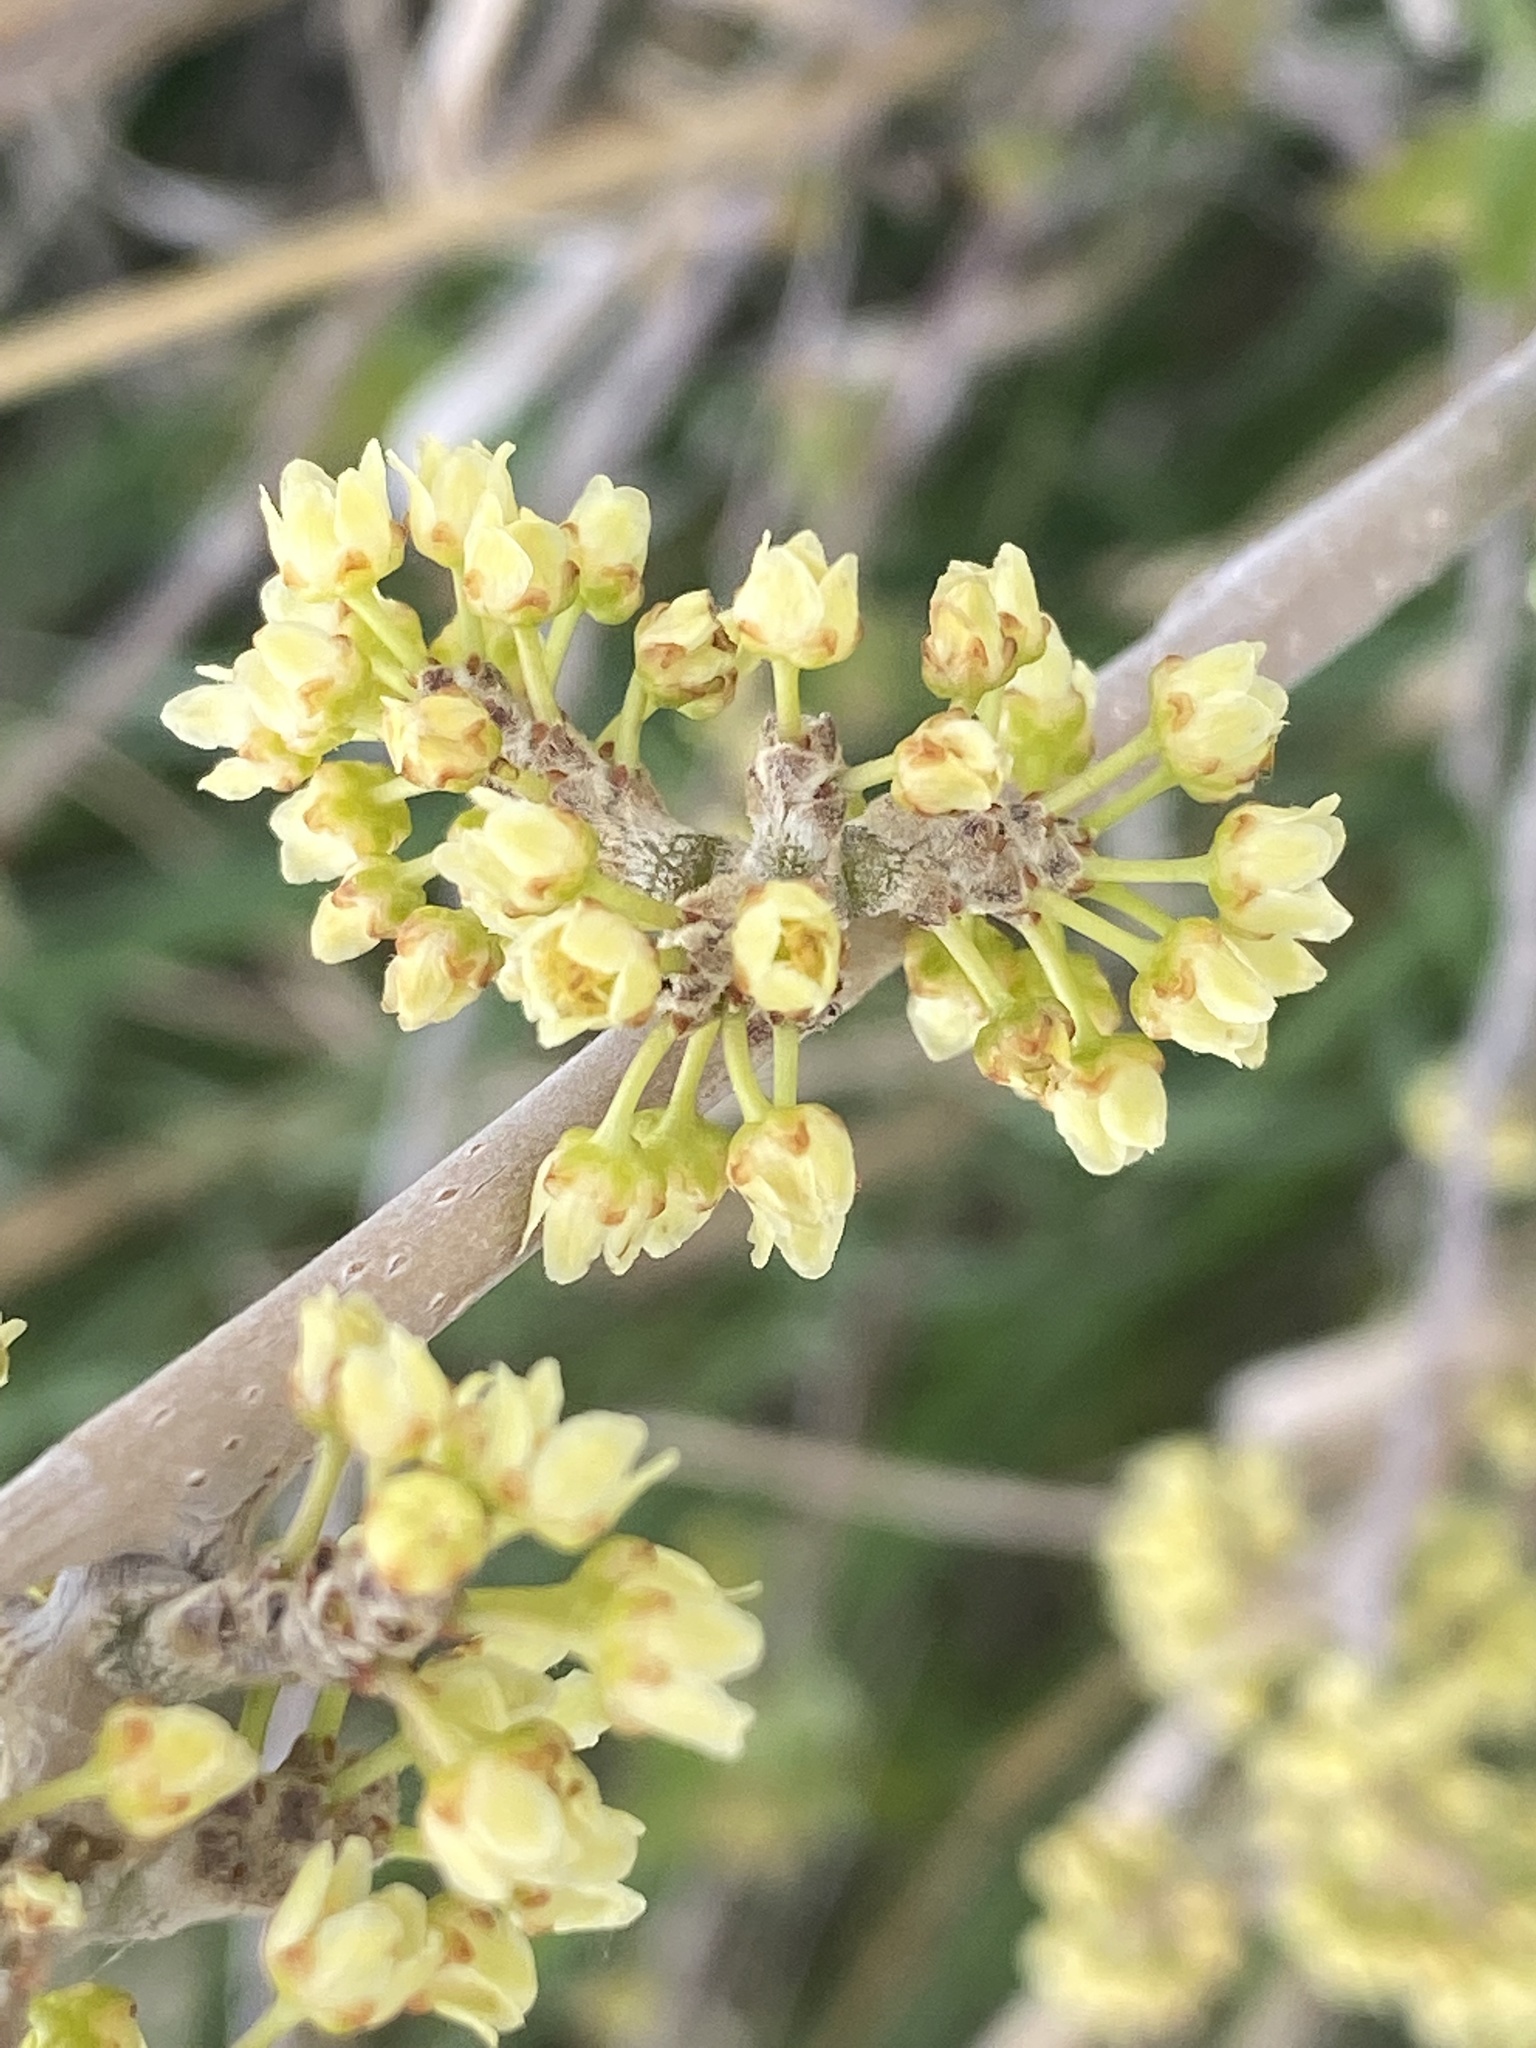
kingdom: Plantae
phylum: Tracheophyta
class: Magnoliopsida
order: Sapindales
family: Anacardiaceae
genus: Rhus
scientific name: Rhus trilobata
